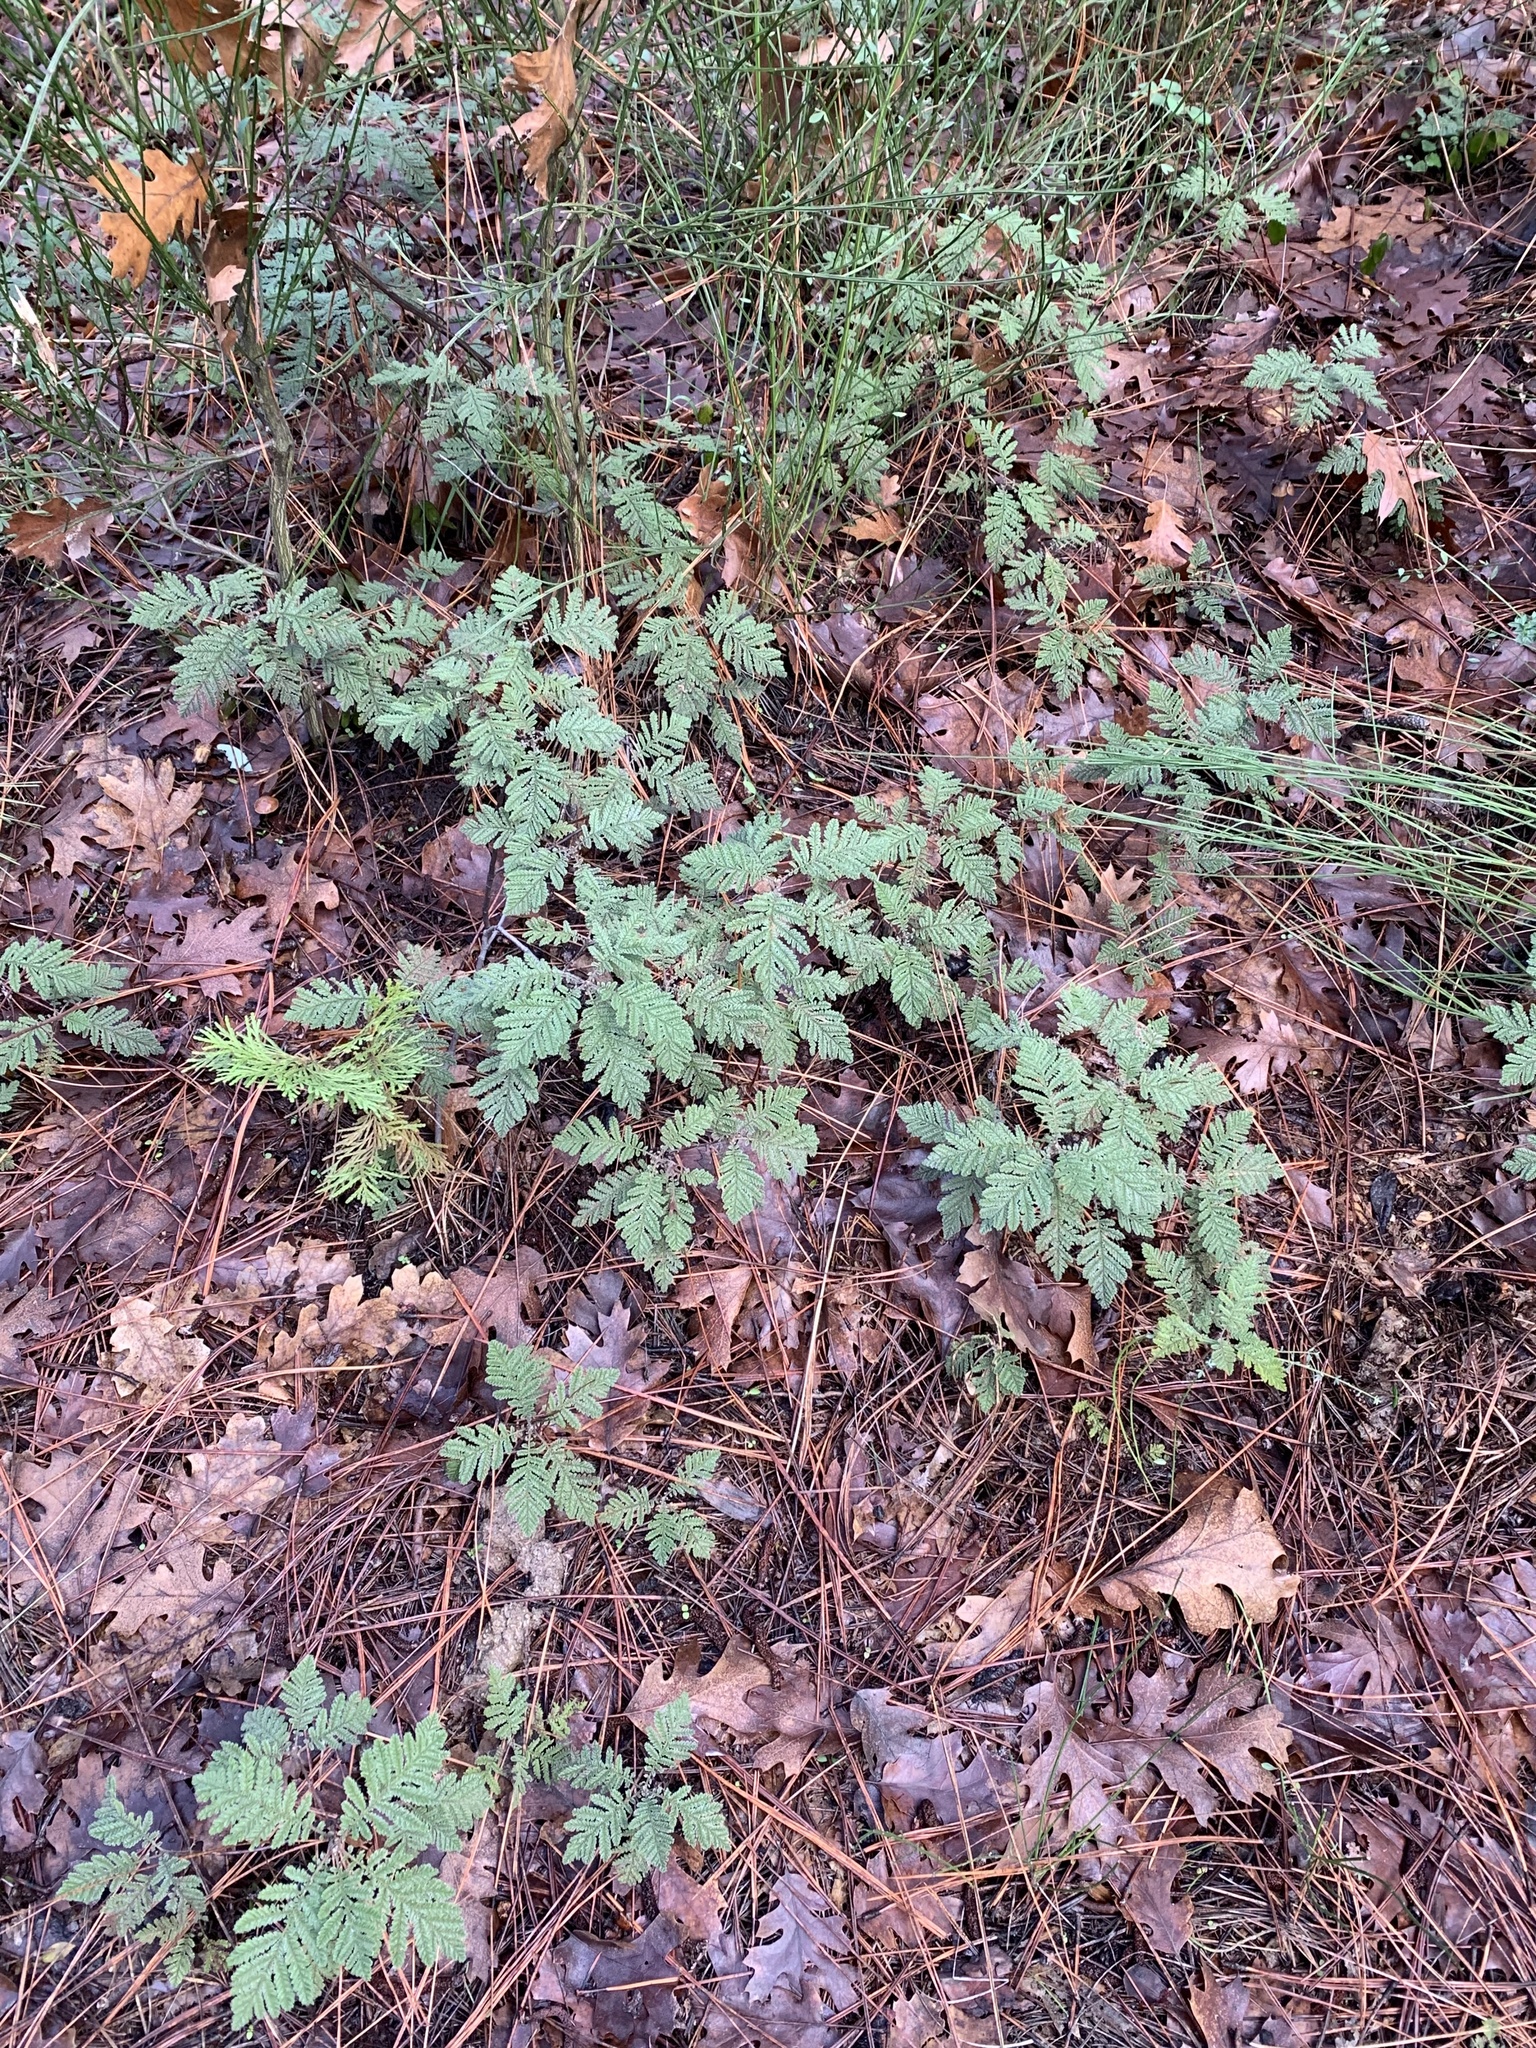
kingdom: Plantae
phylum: Tracheophyta
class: Magnoliopsida
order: Rosales
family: Rosaceae
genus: Chamaebatia
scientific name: Chamaebatia foliolosa
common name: Mountain misery
